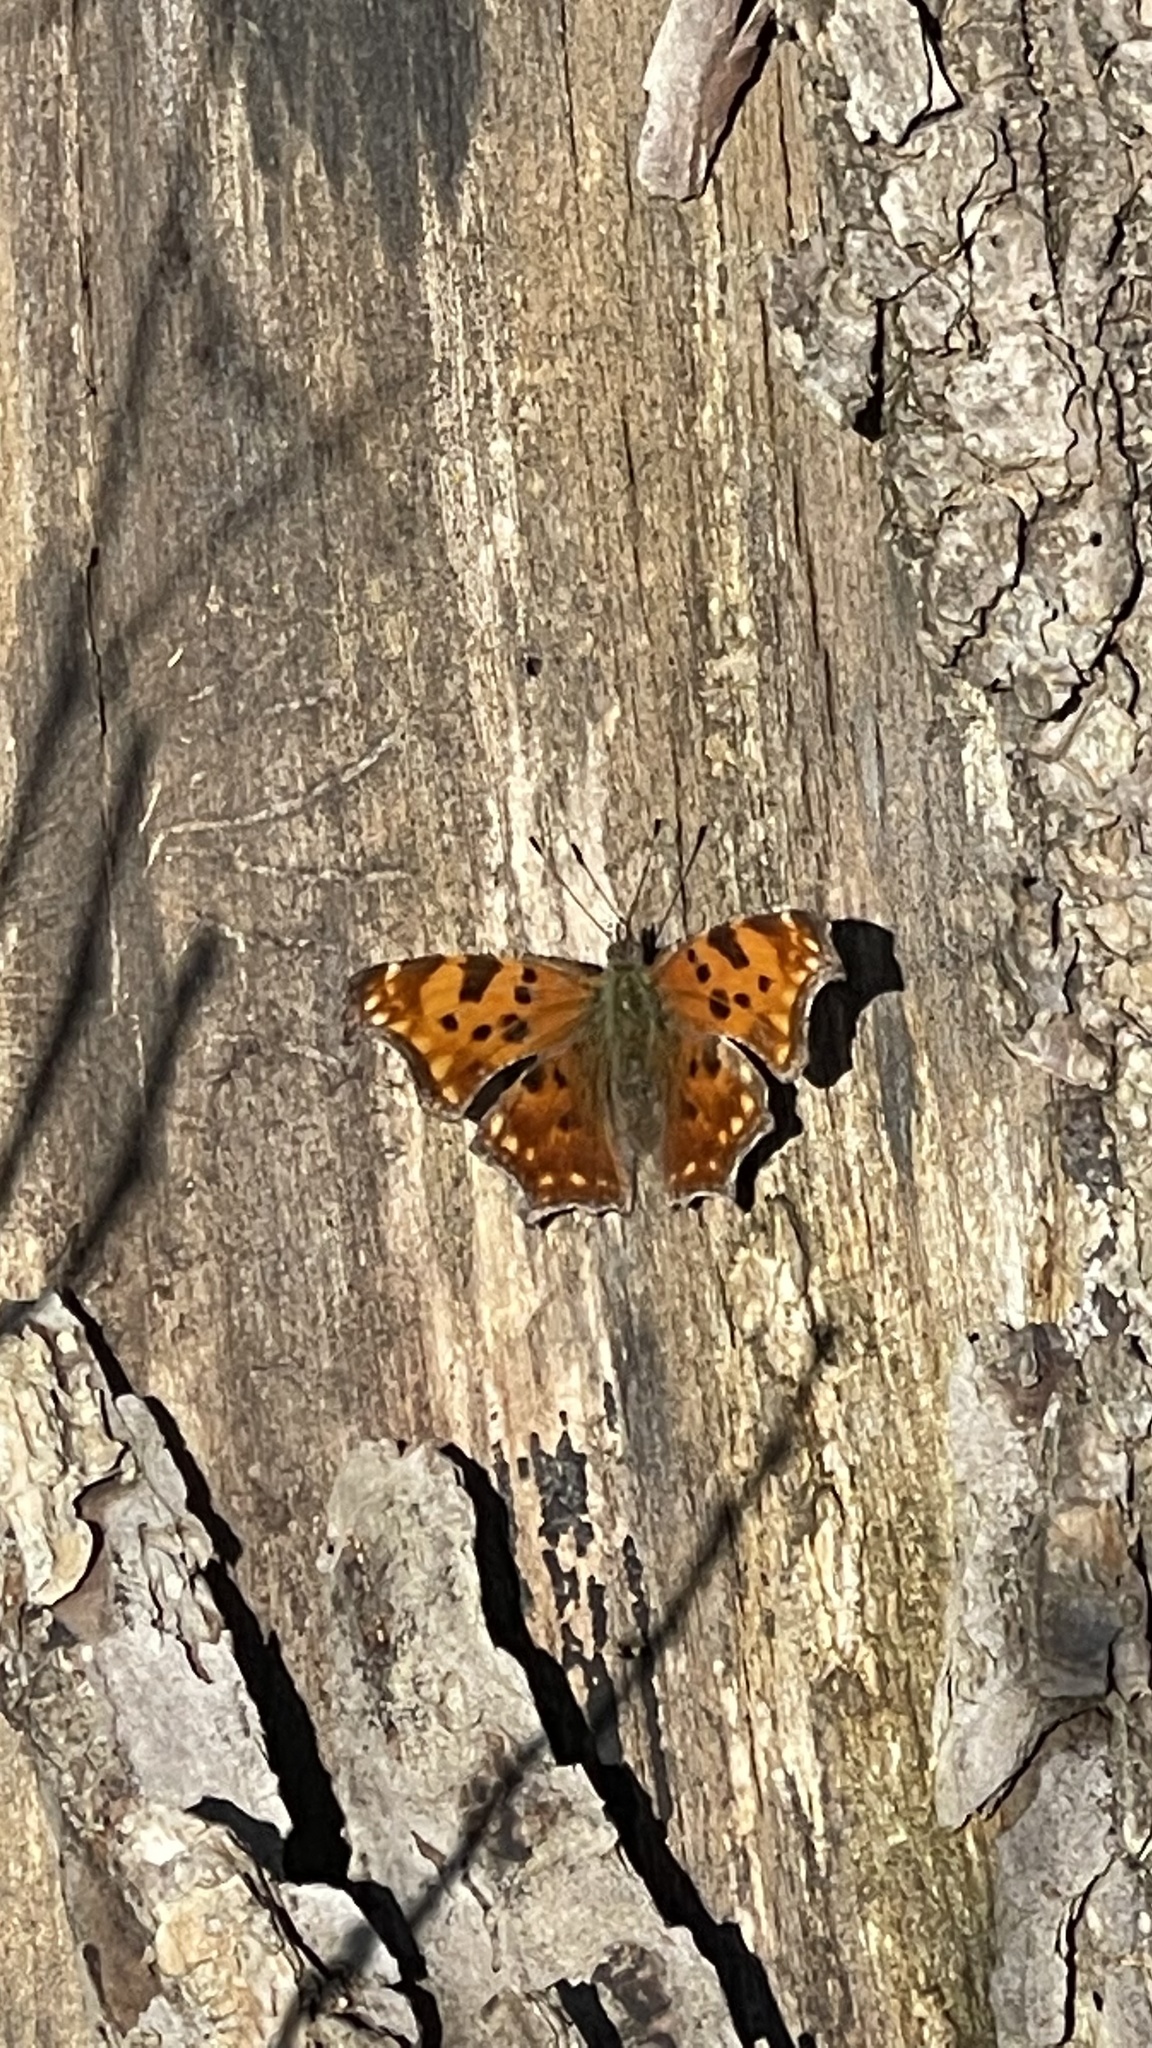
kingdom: Animalia
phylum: Arthropoda
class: Insecta
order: Lepidoptera
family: Nymphalidae
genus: Polygonia
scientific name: Polygonia comma
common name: Eastern comma
